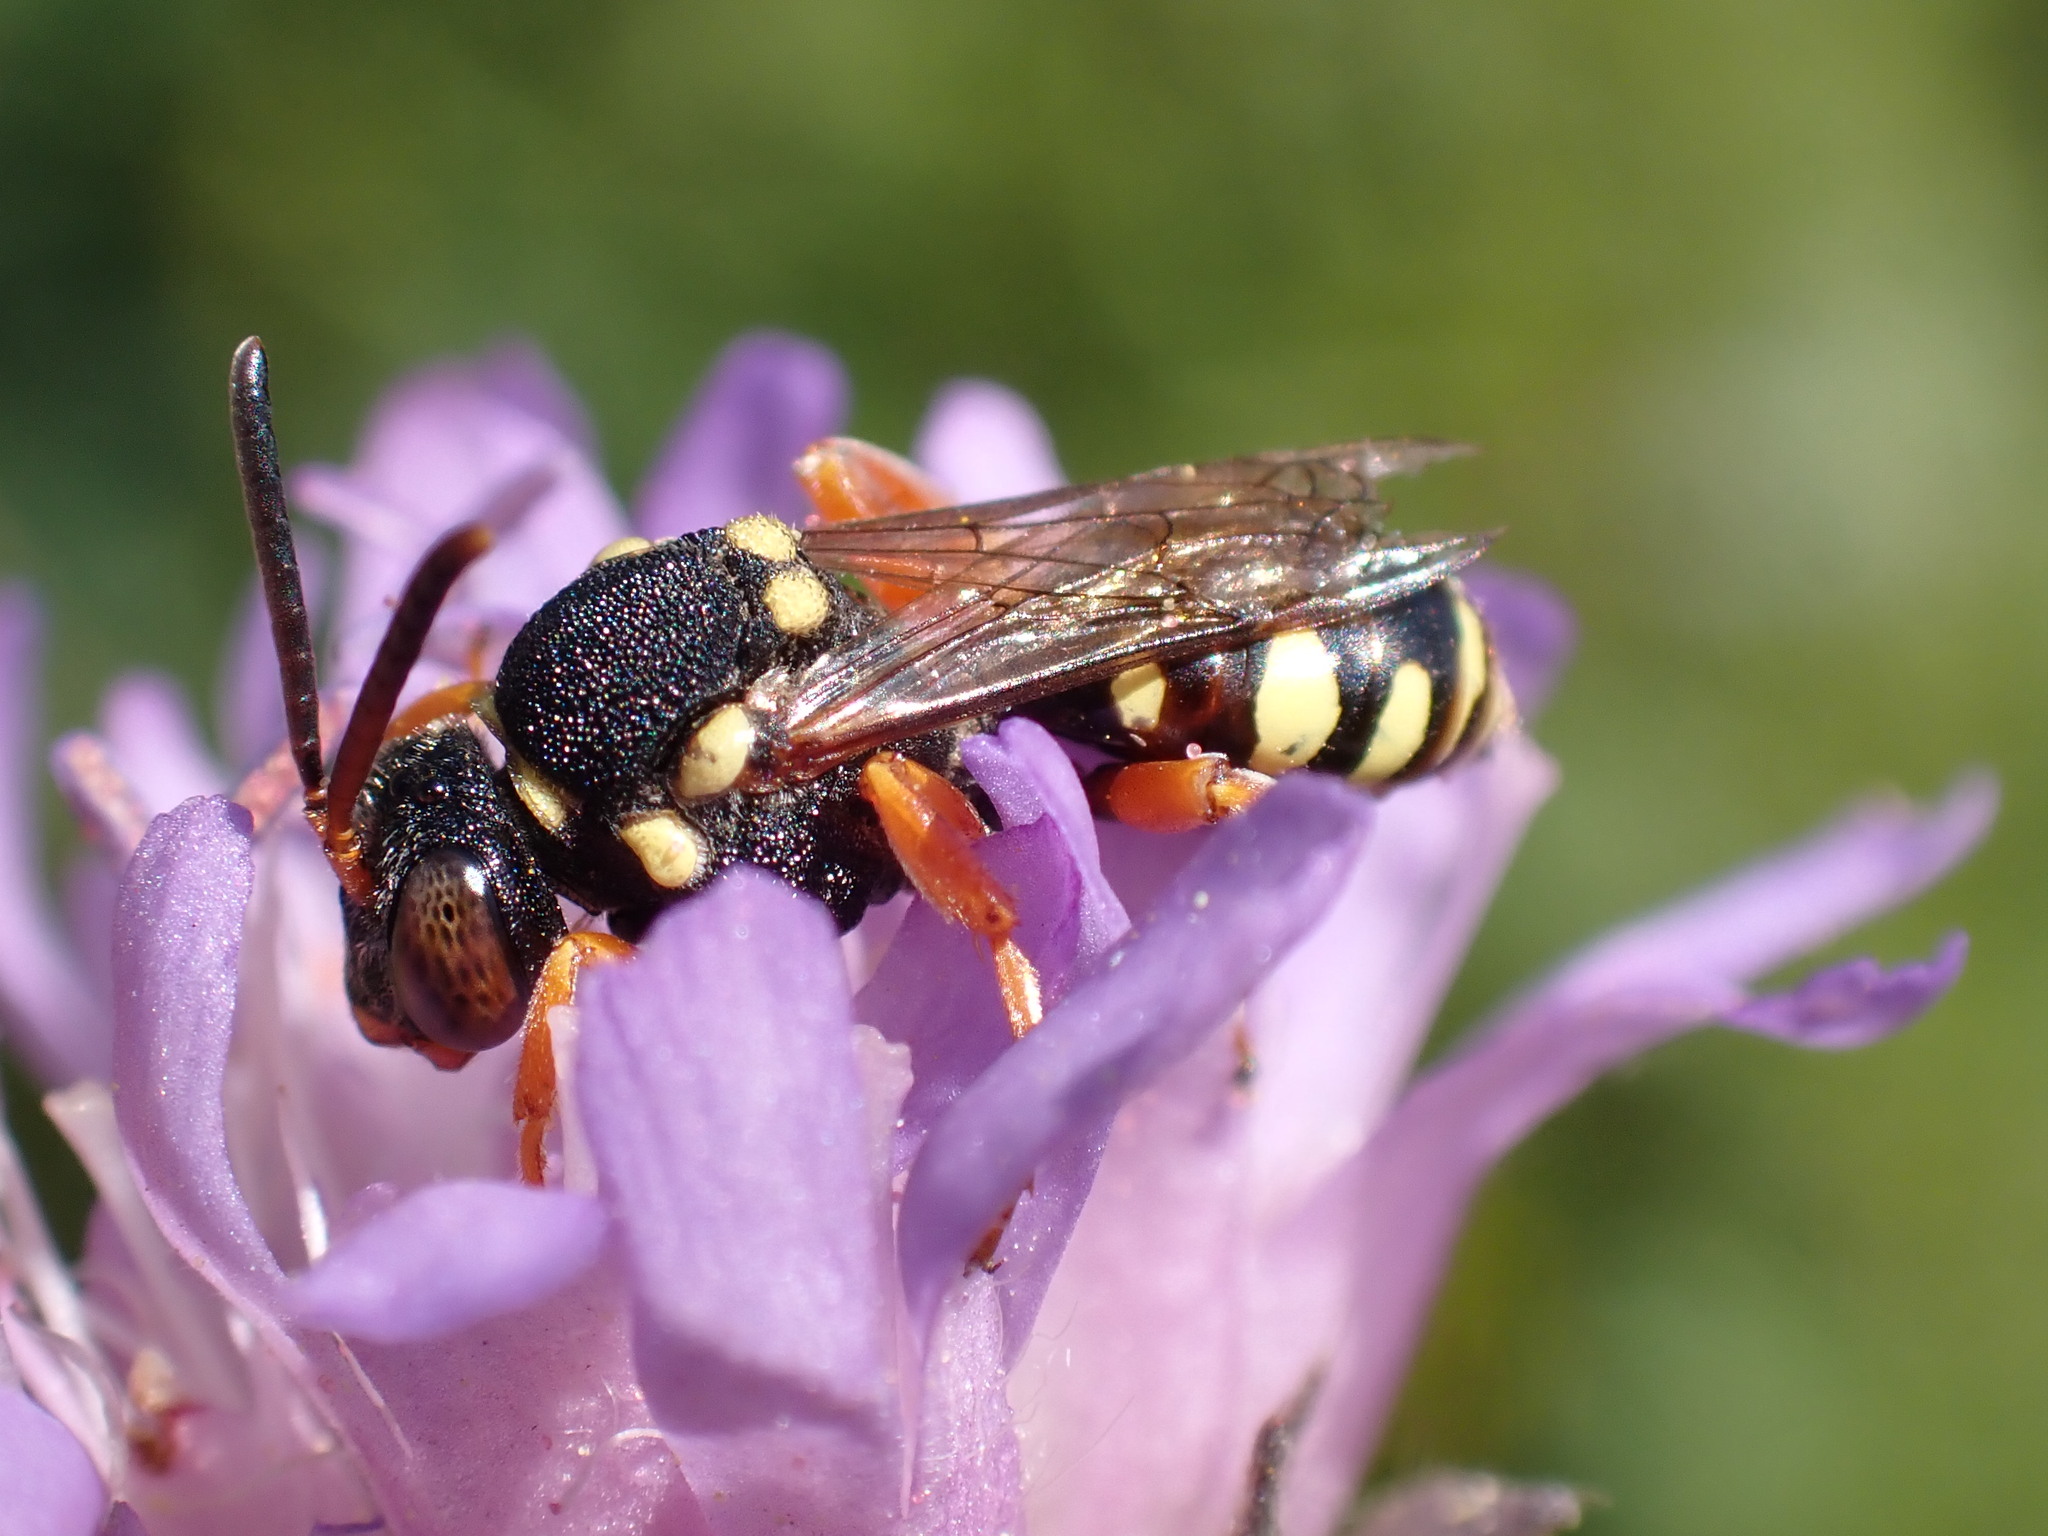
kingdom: Animalia
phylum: Arthropoda
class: Insecta
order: Hymenoptera
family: Apidae
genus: Nomada
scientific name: Nomada flavopicta
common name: Blunthorn nomad bee
